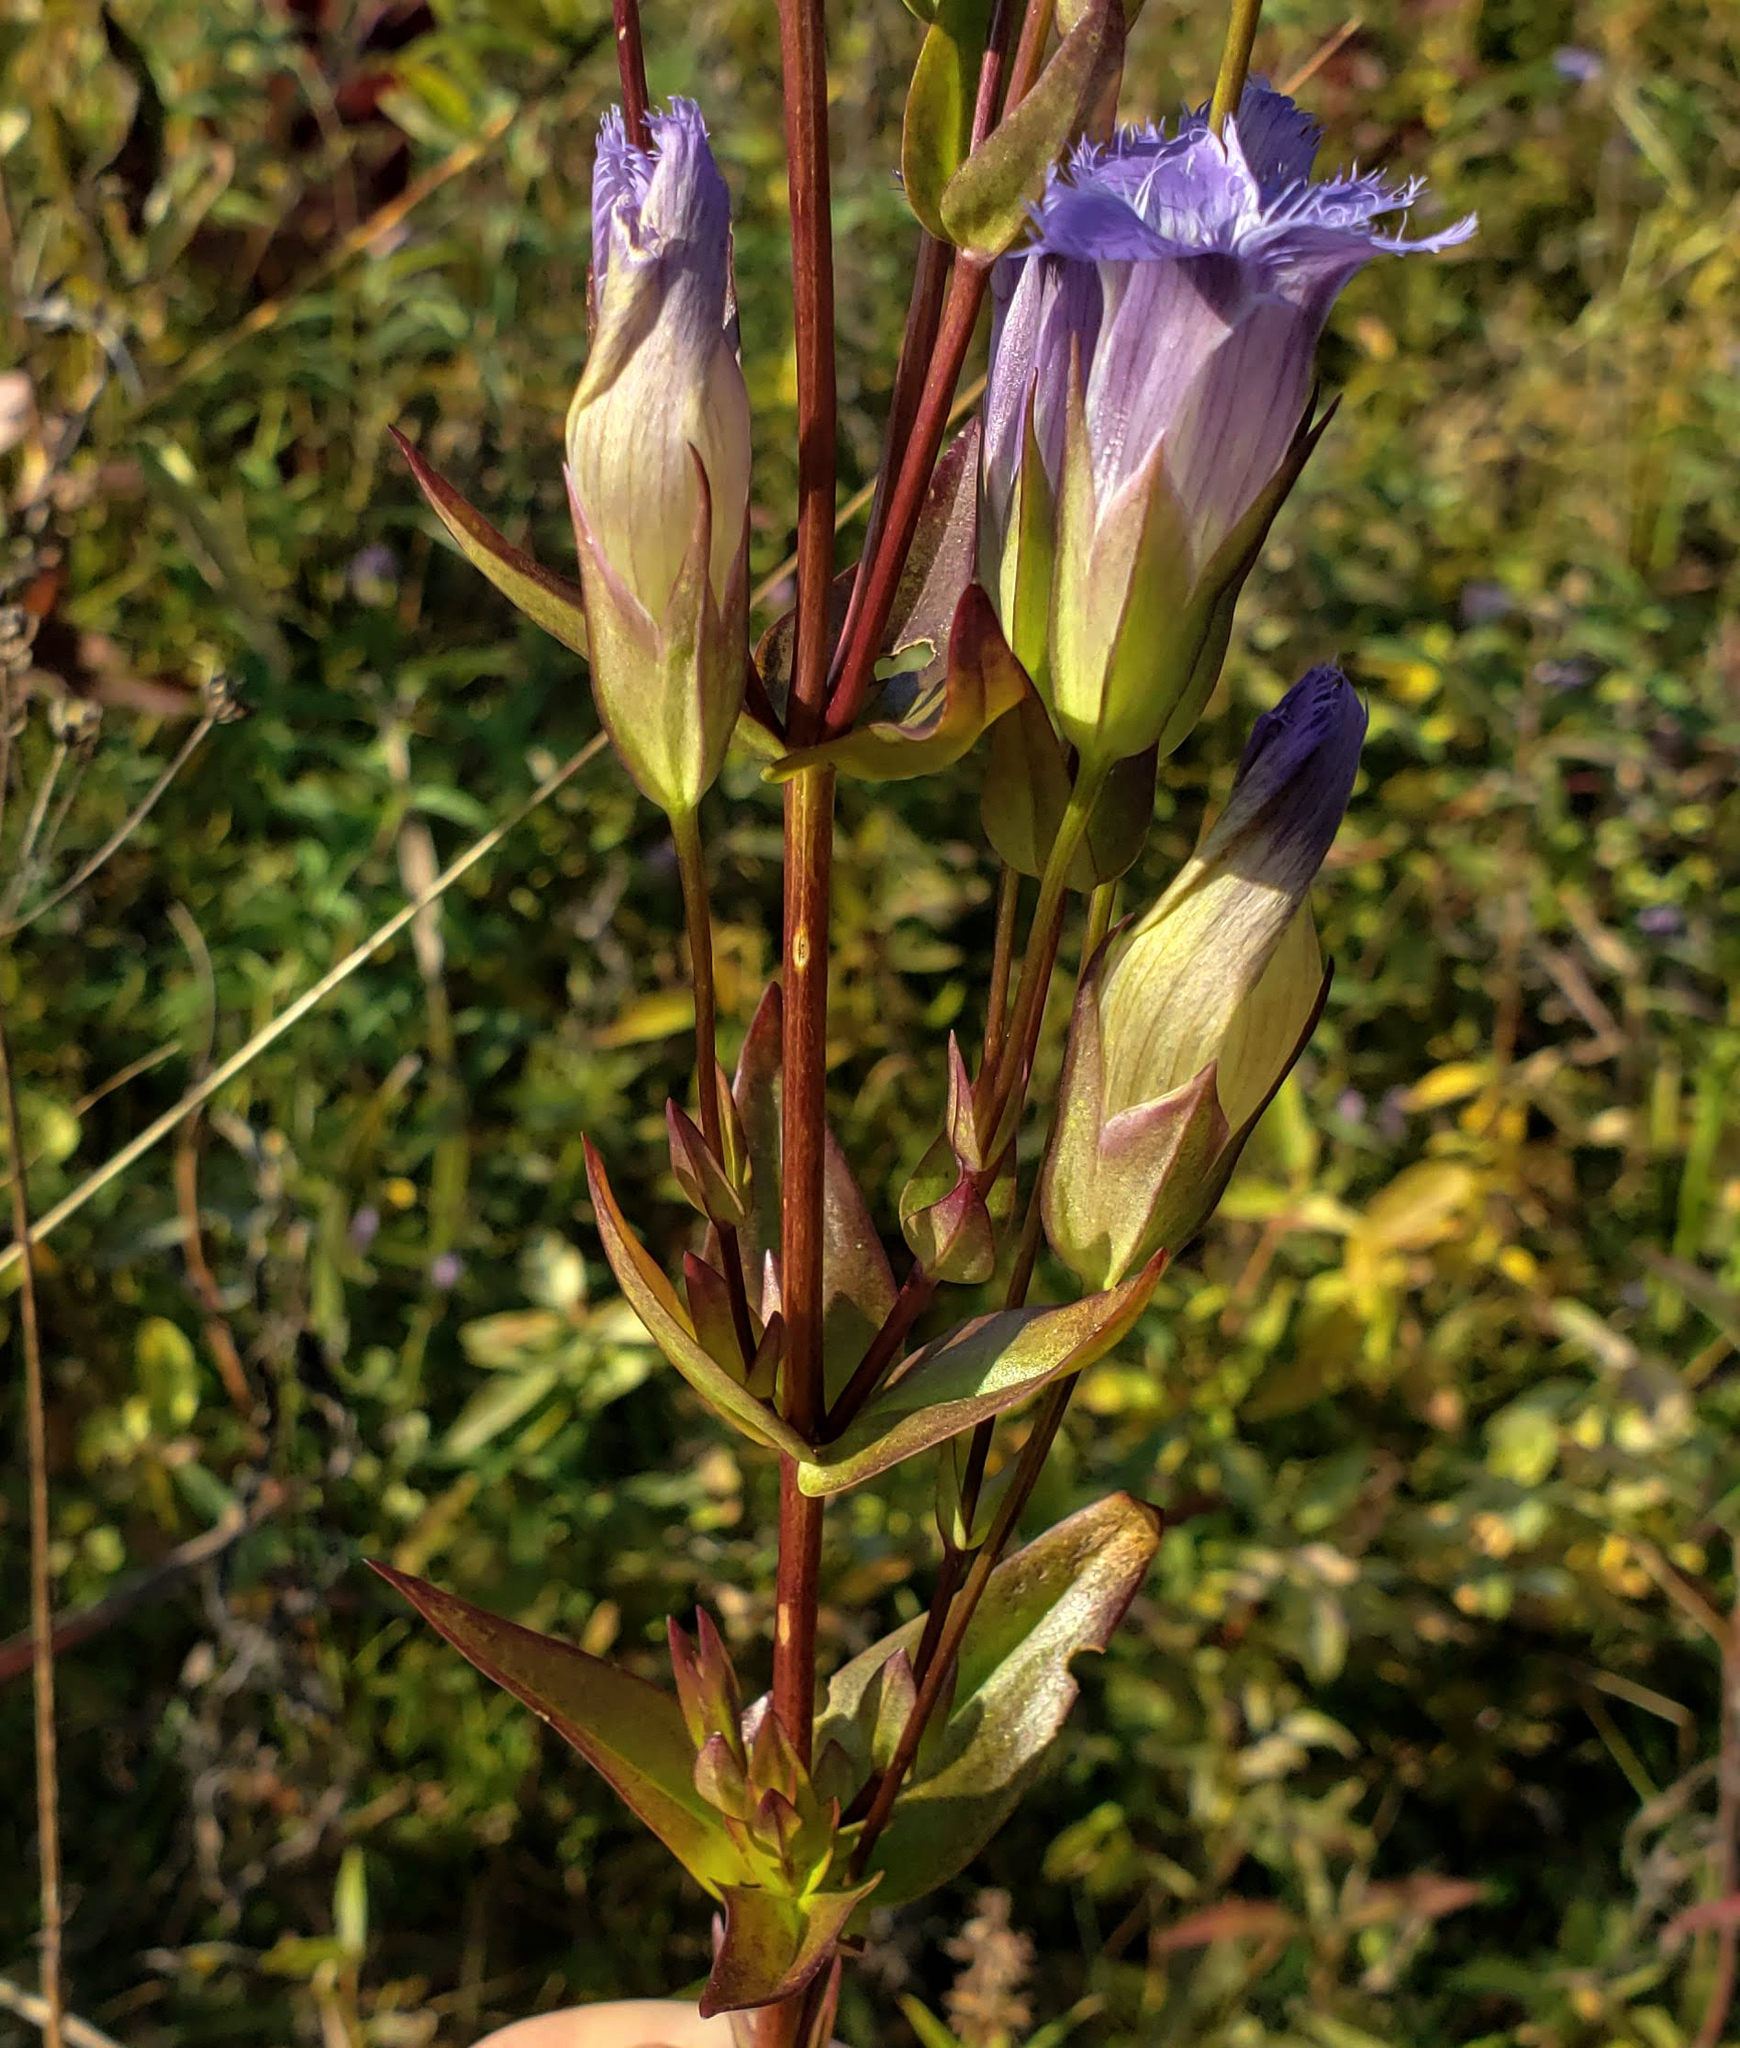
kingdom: Plantae
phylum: Tracheophyta
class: Magnoliopsida
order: Gentianales
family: Gentianaceae
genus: Gentianopsis
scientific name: Gentianopsis crinita
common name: Fringed-gentian
